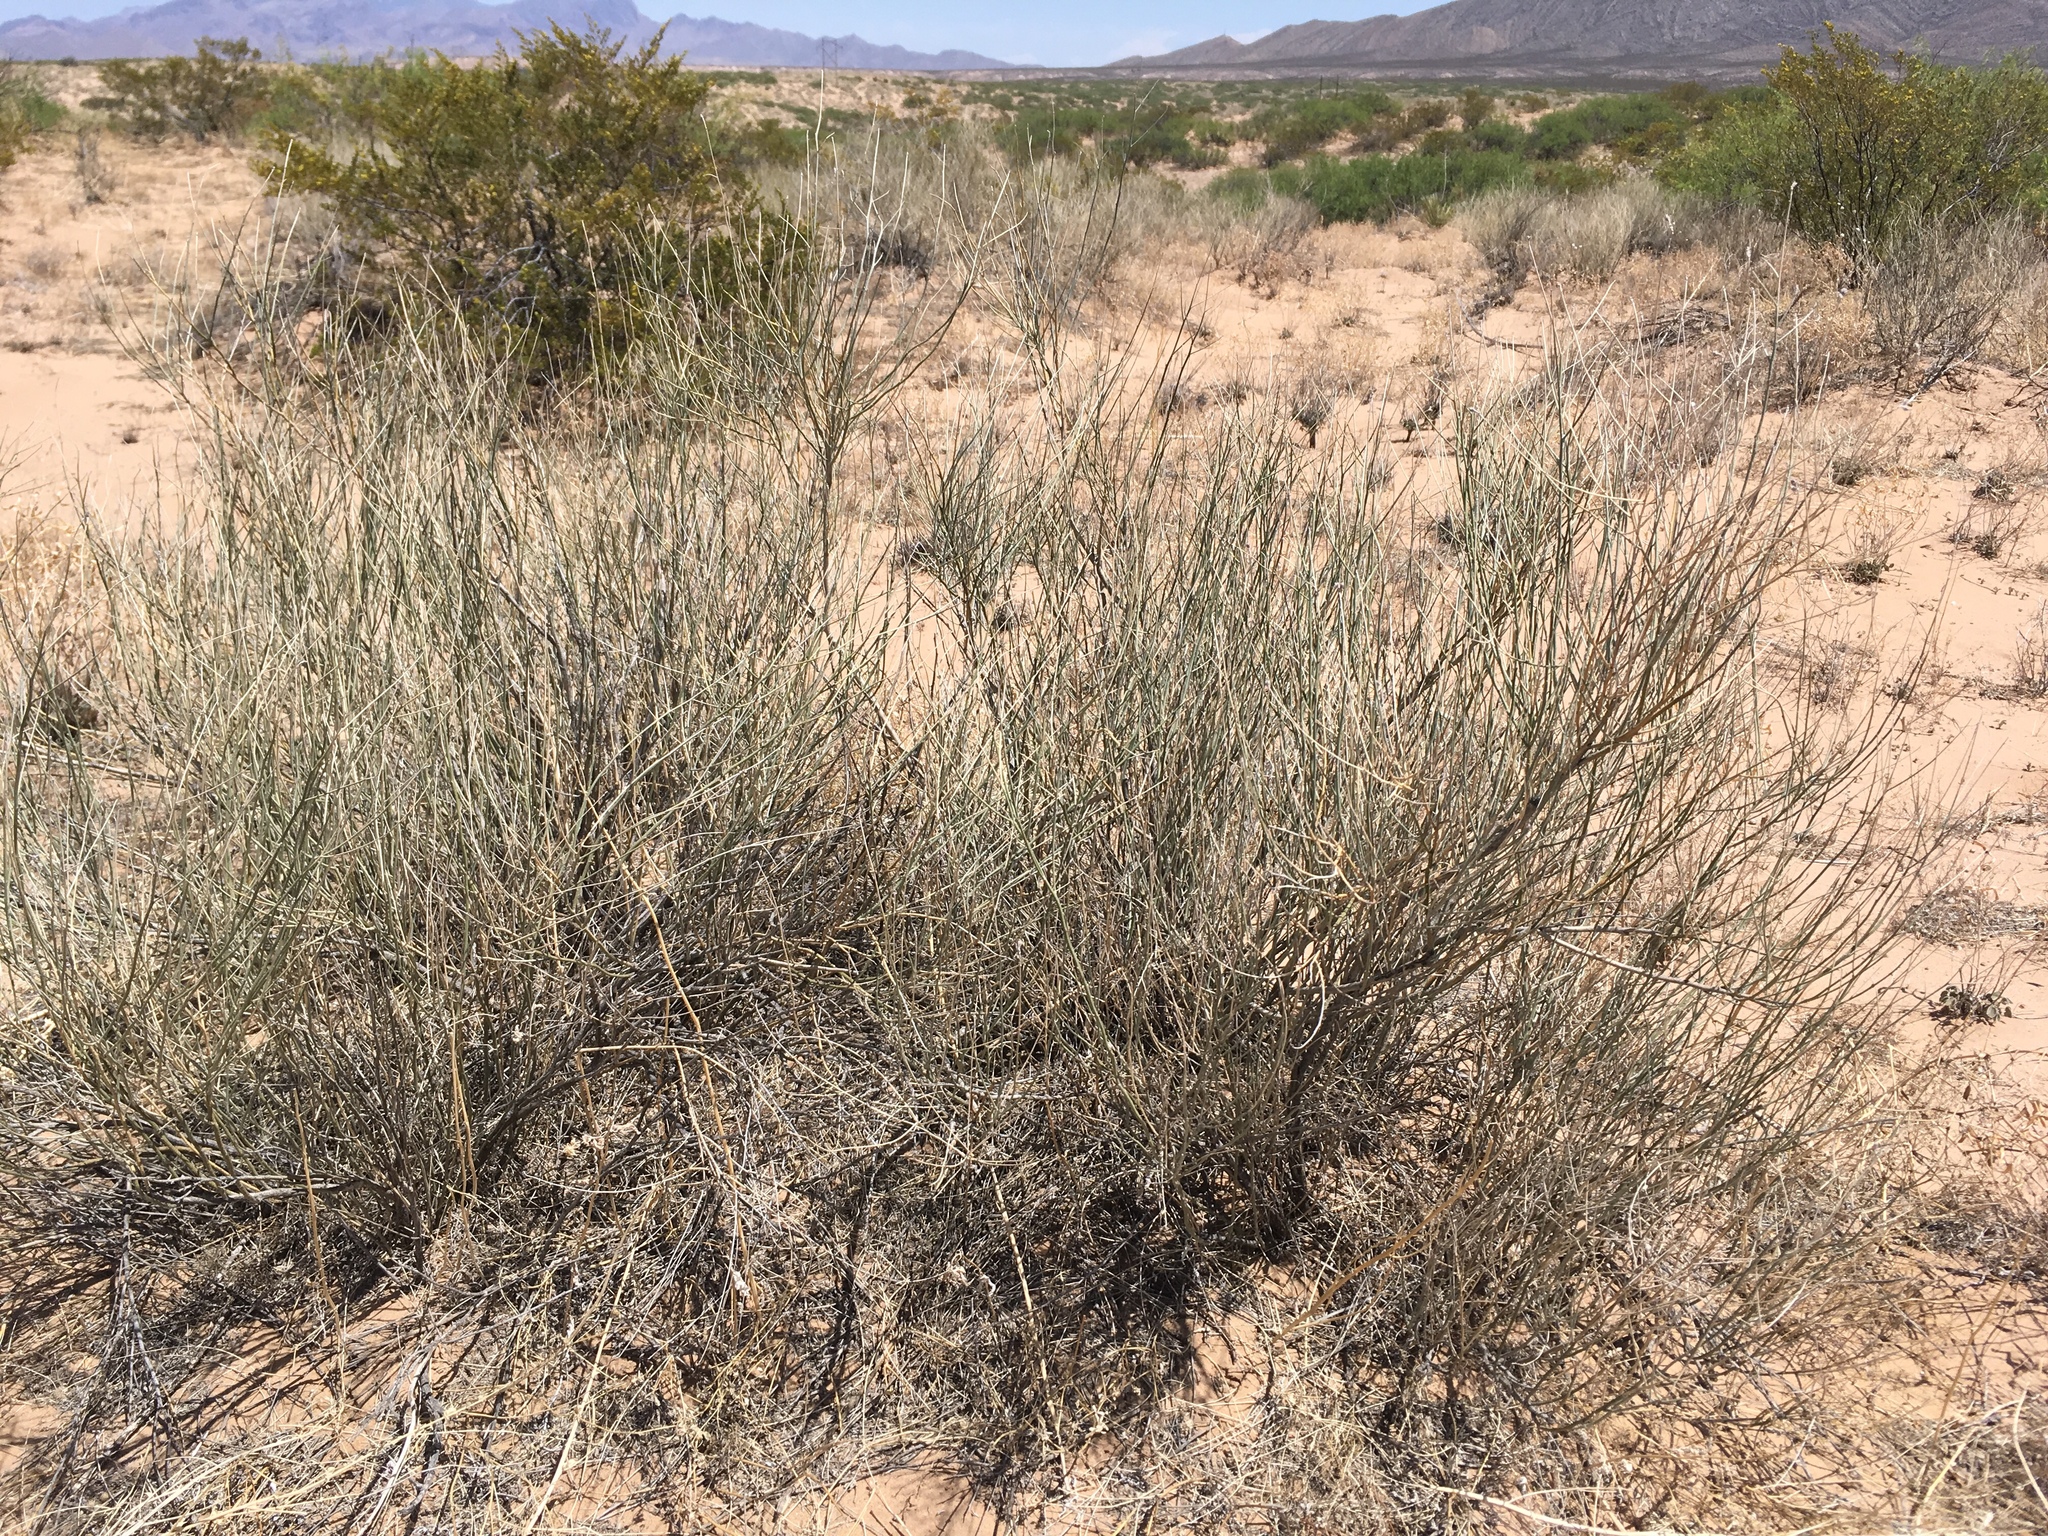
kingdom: Plantae
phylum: Tracheophyta
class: Magnoliopsida
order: Fabales
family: Fabaceae
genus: Psorothamnus
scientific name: Psorothamnus scoparius
